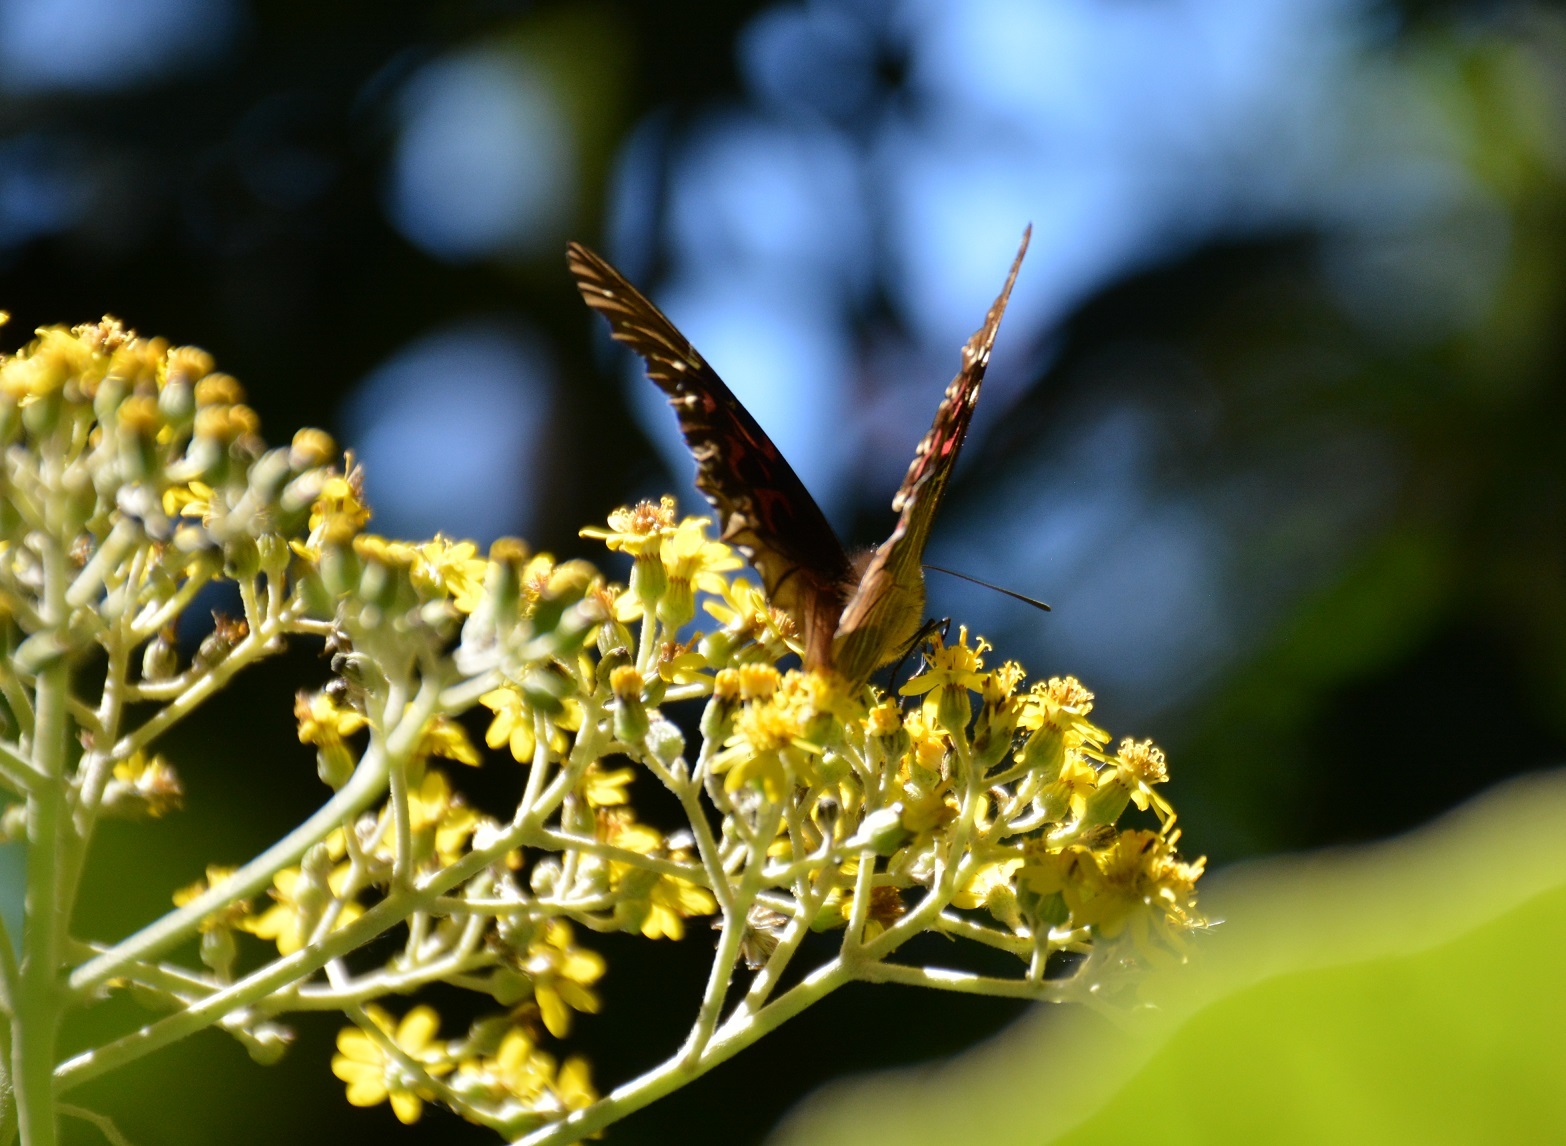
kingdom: Animalia
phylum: Arthropoda
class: Insecta
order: Lepidoptera
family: Nymphalidae
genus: Anetia
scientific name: Anetia thirza
